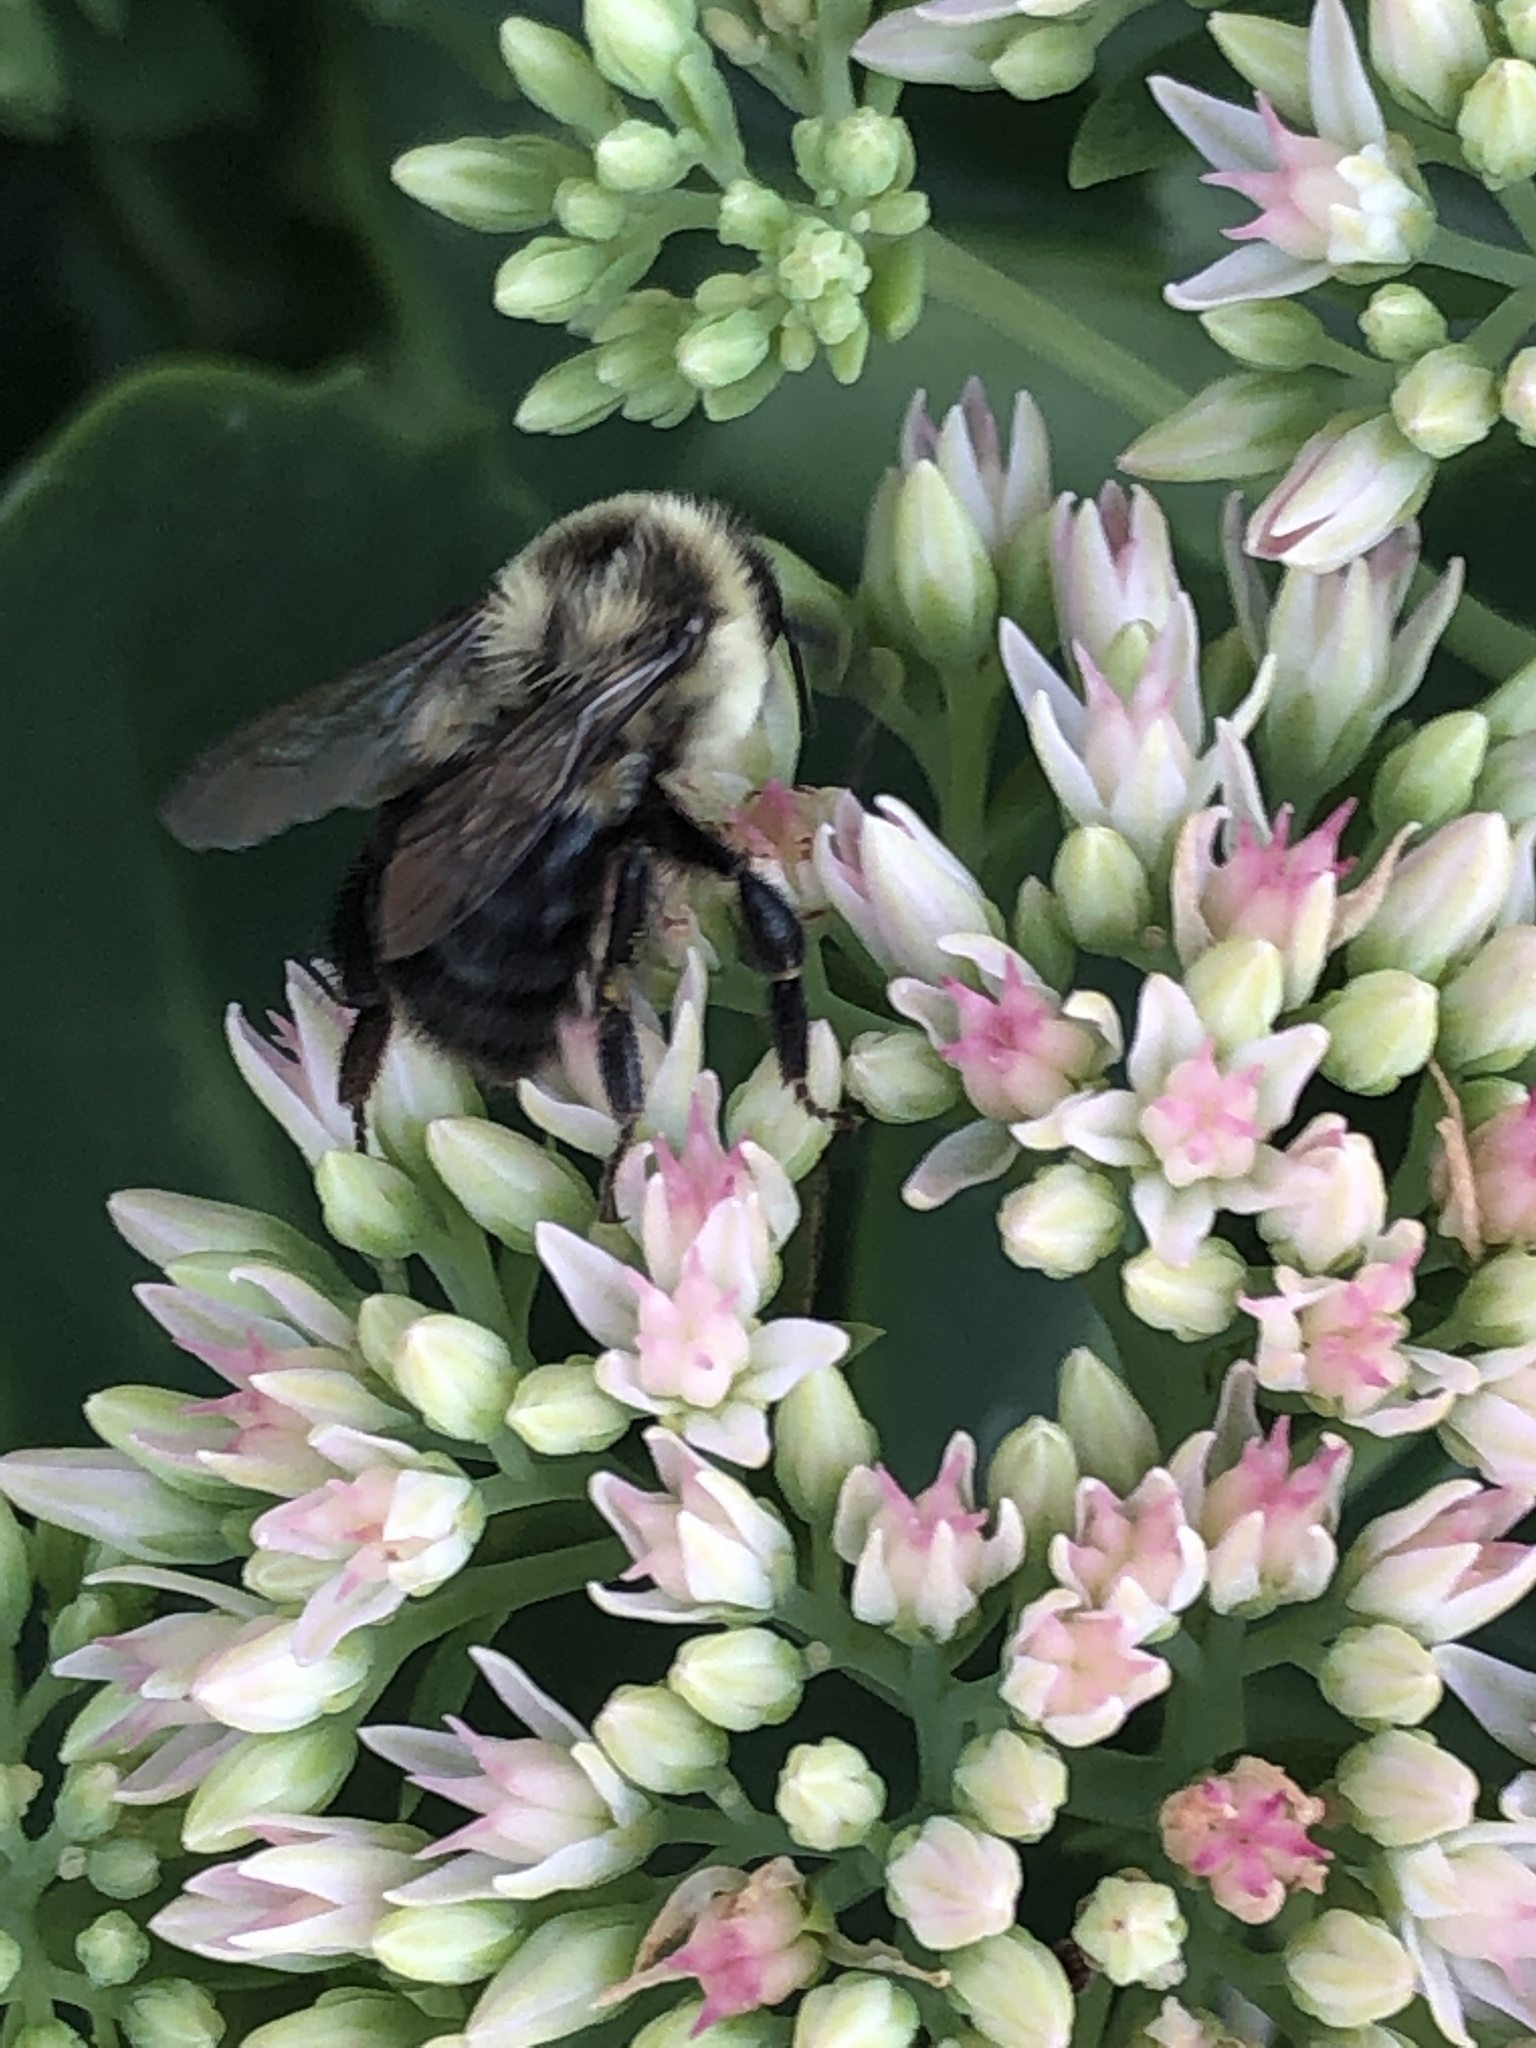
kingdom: Animalia
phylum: Arthropoda
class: Insecta
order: Hymenoptera
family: Apidae
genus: Bombus
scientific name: Bombus impatiens
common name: Common eastern bumble bee
